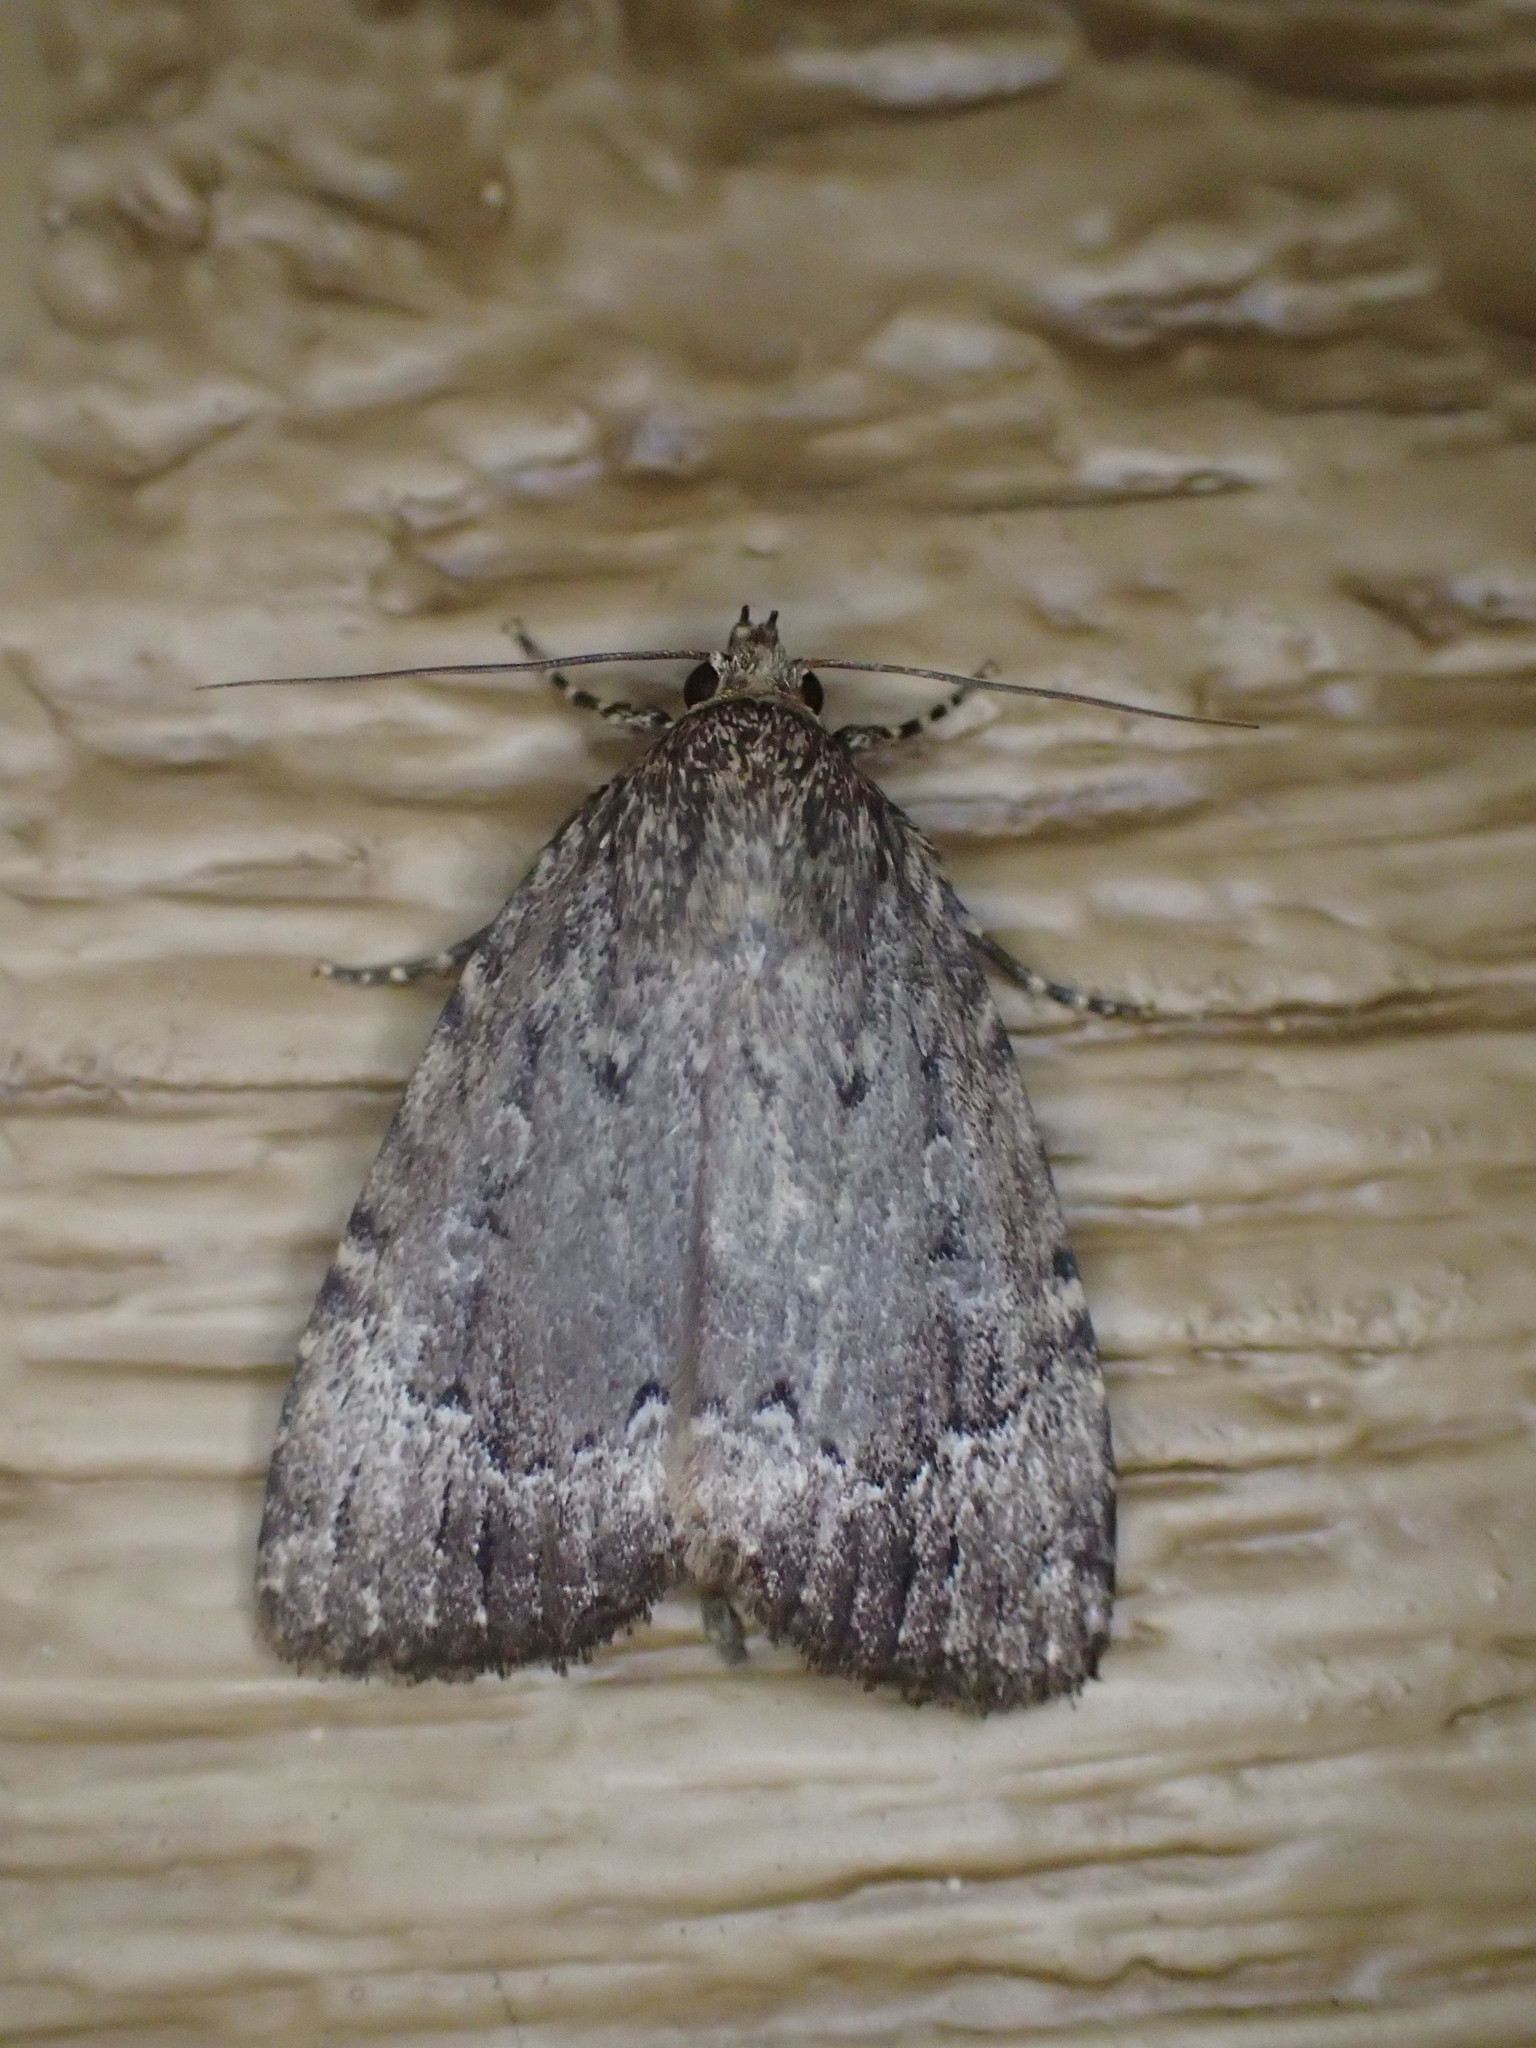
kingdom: Animalia
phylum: Arthropoda
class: Insecta
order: Lepidoptera
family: Noctuidae
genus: Amphipyra
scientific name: Amphipyra pyramidoides
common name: American copper underwing
